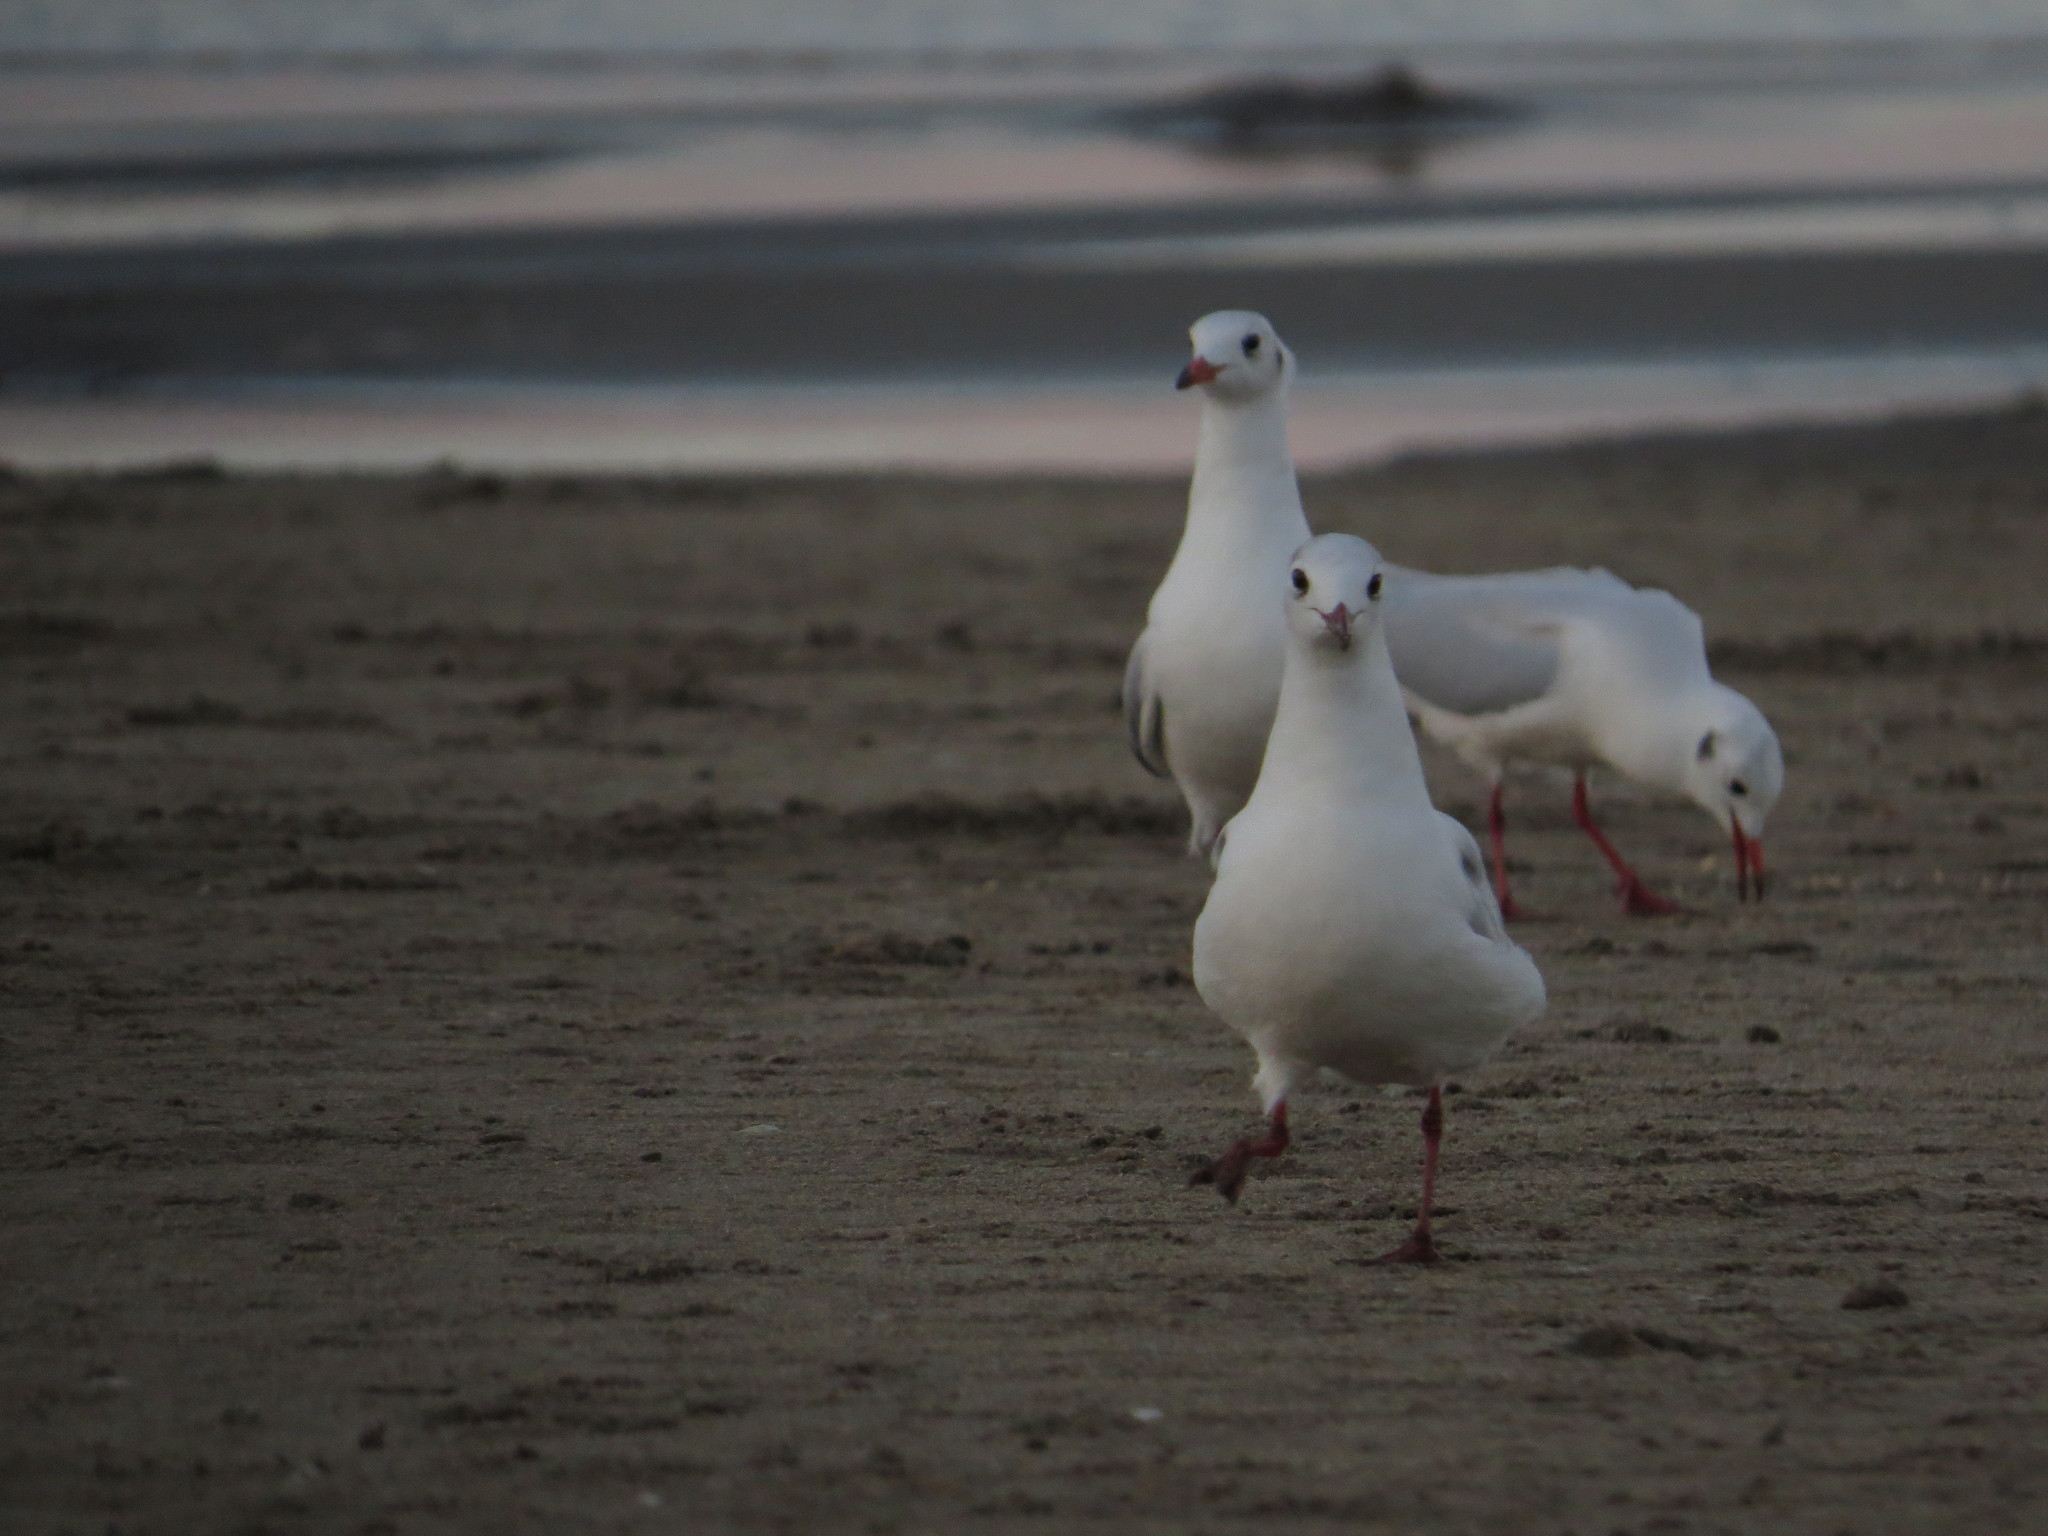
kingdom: Animalia
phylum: Chordata
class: Aves
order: Charadriiformes
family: Laridae
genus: Chroicocephalus
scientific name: Chroicocephalus maculipennis
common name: Brown-hooded gull
